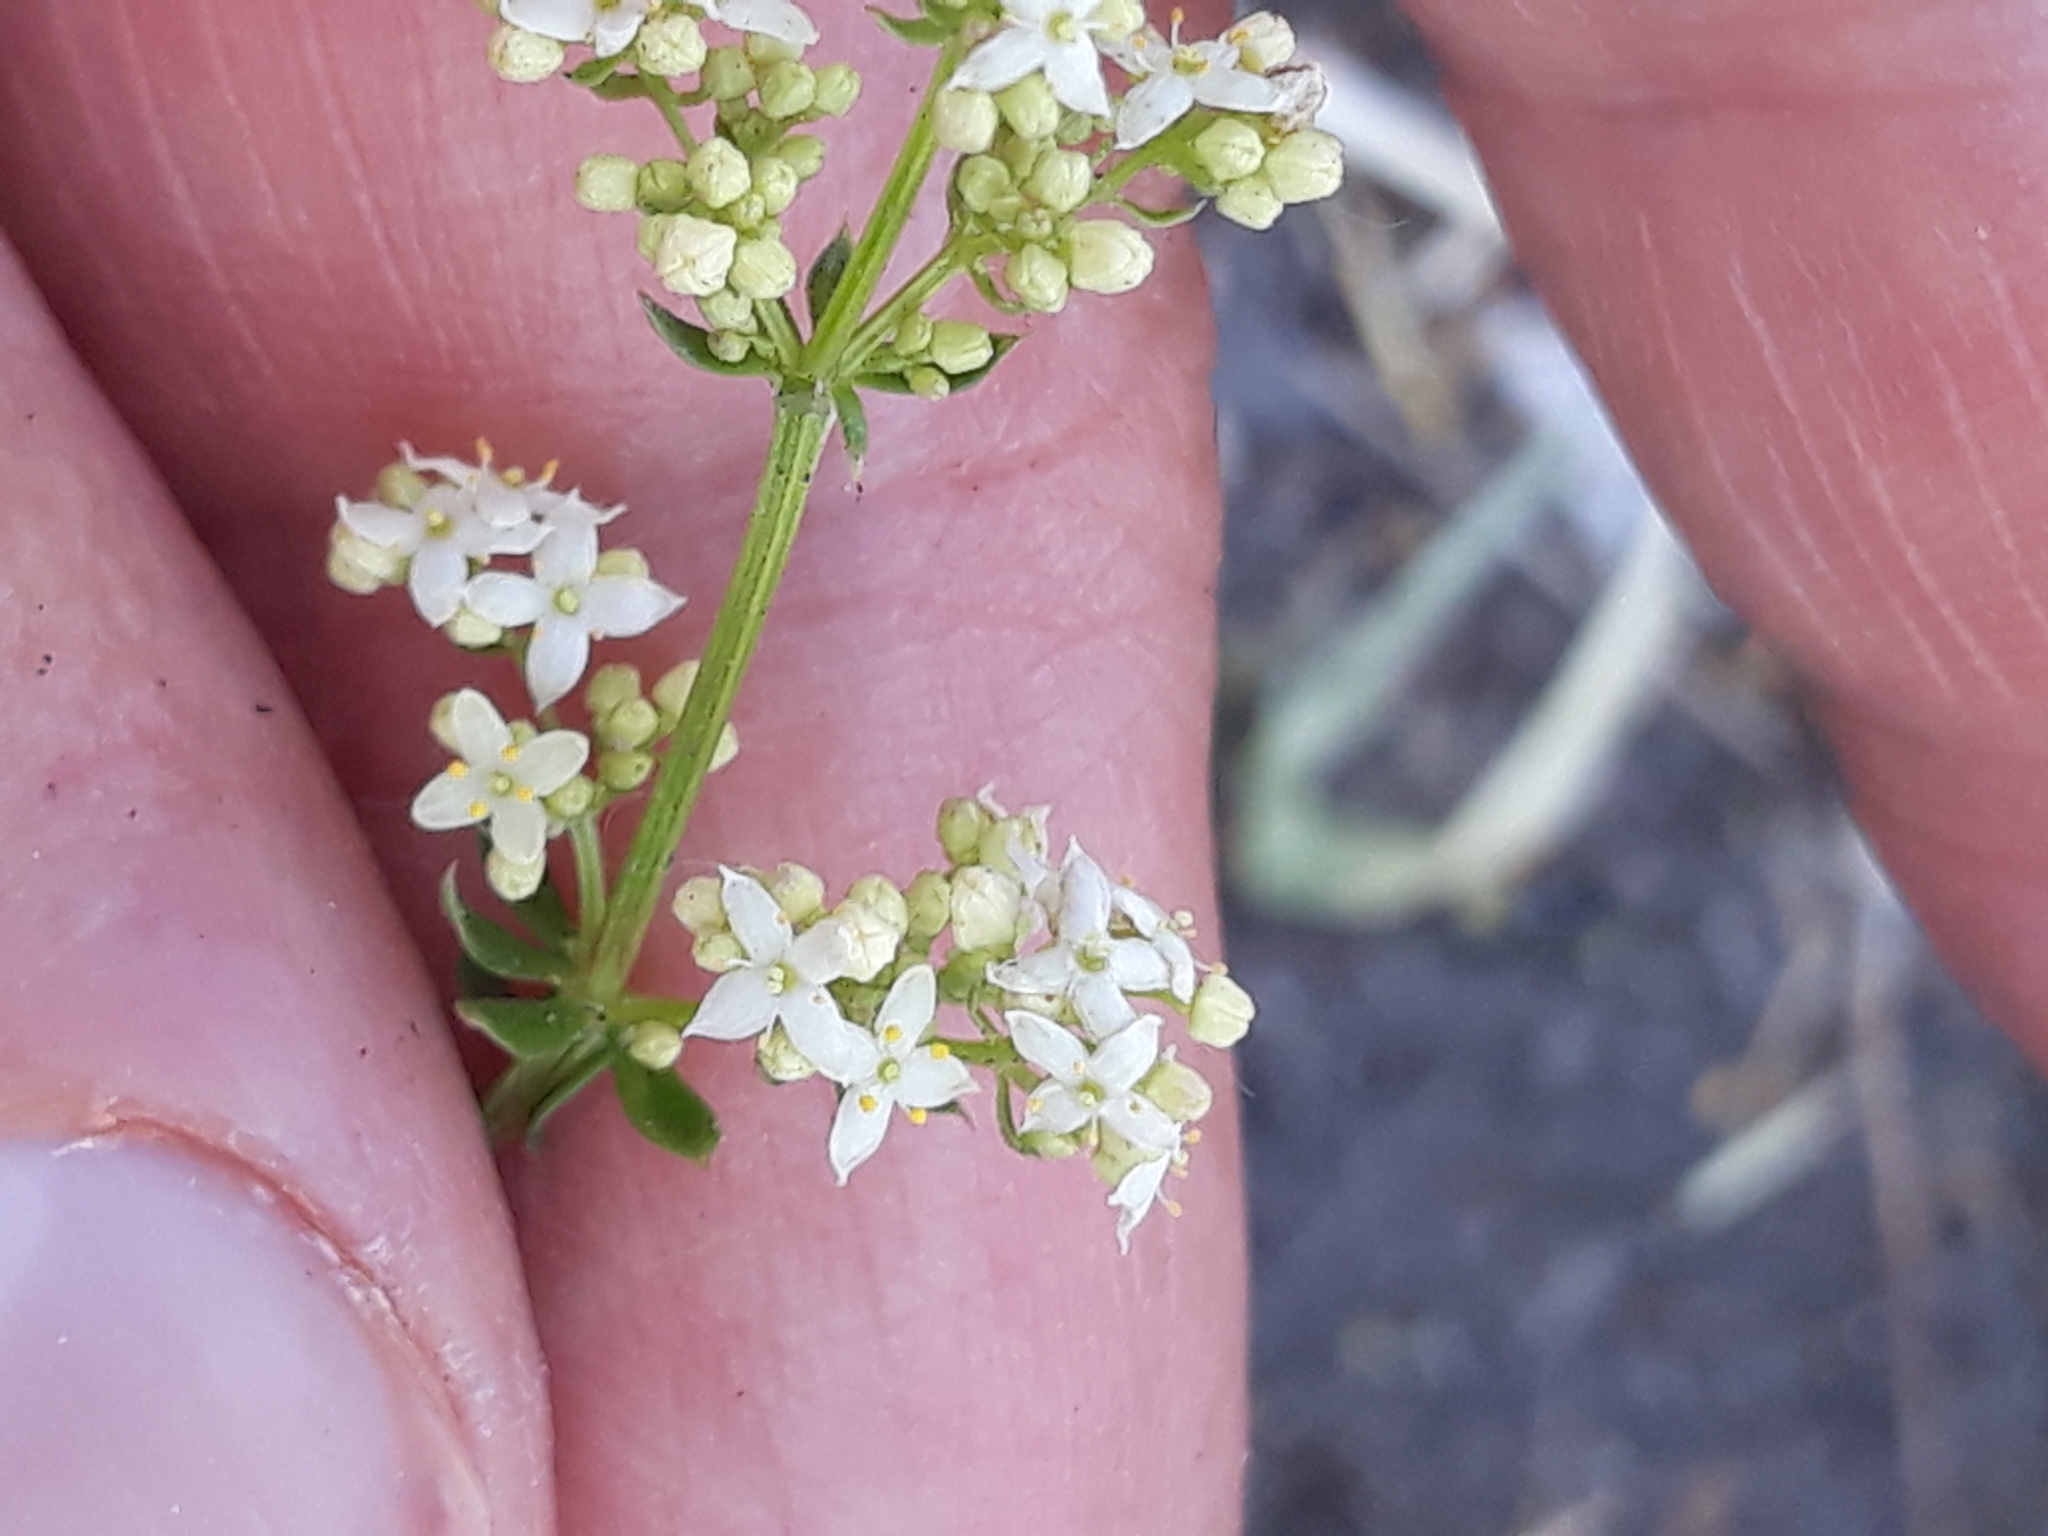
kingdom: Plantae
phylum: Tracheophyta
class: Magnoliopsida
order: Gentianales
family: Rubiaceae
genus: Galium
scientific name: Galium album
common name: White bedstraw
